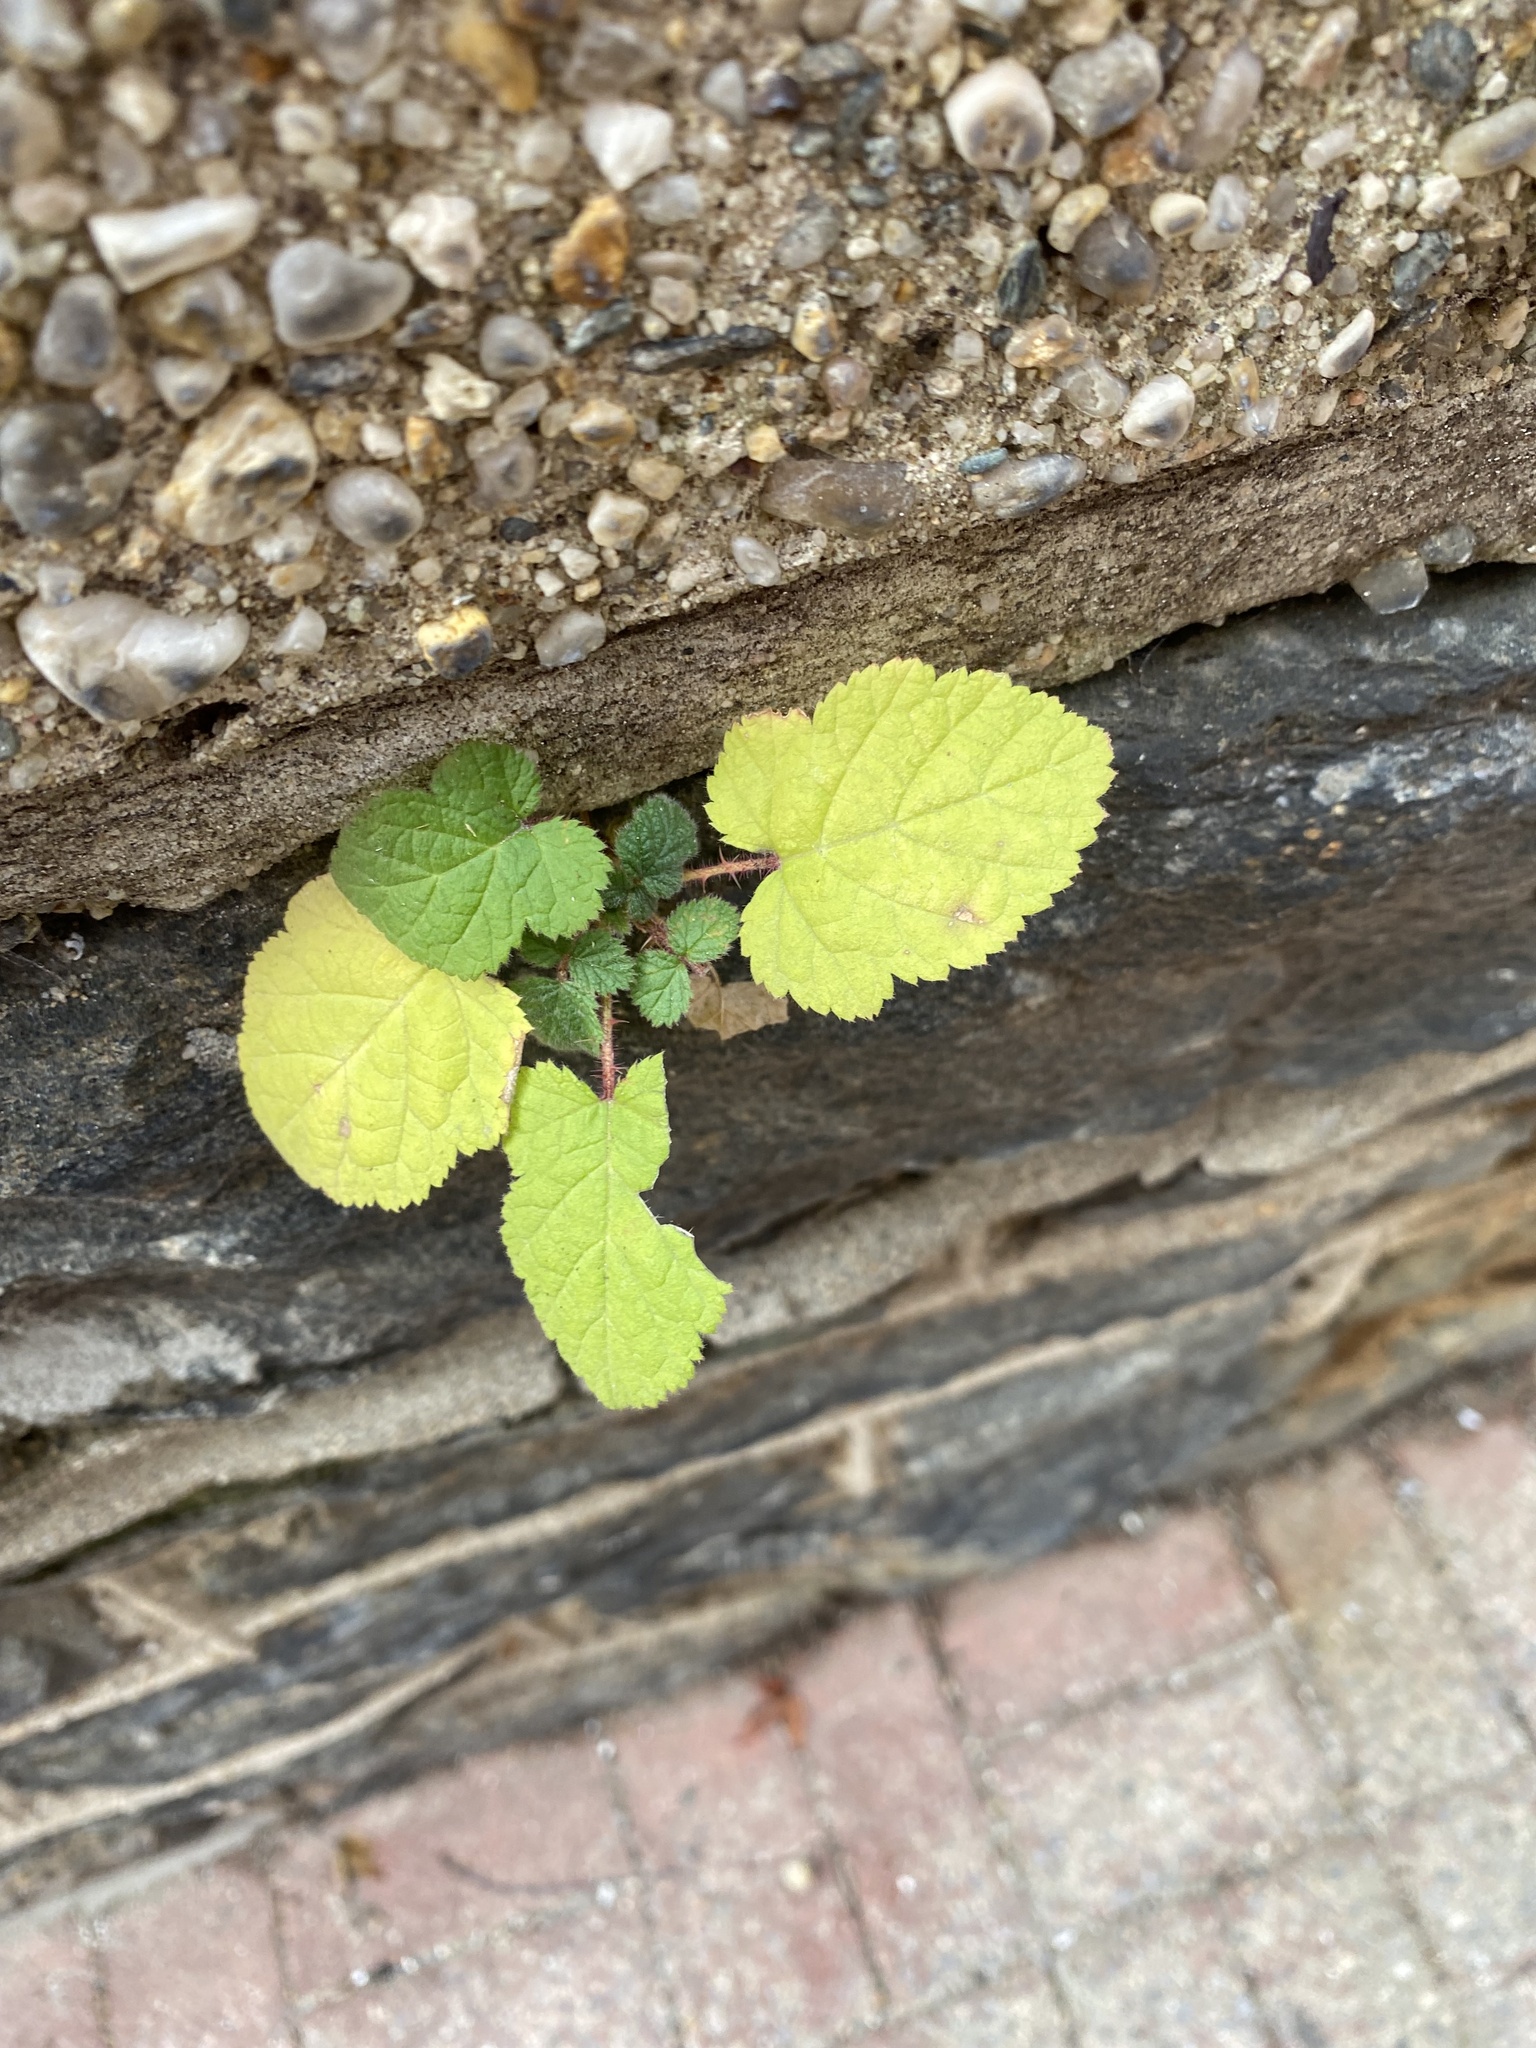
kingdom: Plantae
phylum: Tracheophyta
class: Magnoliopsida
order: Rosales
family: Rosaceae
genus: Rubus
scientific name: Rubus phoenicolasius
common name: Japanese wineberry
